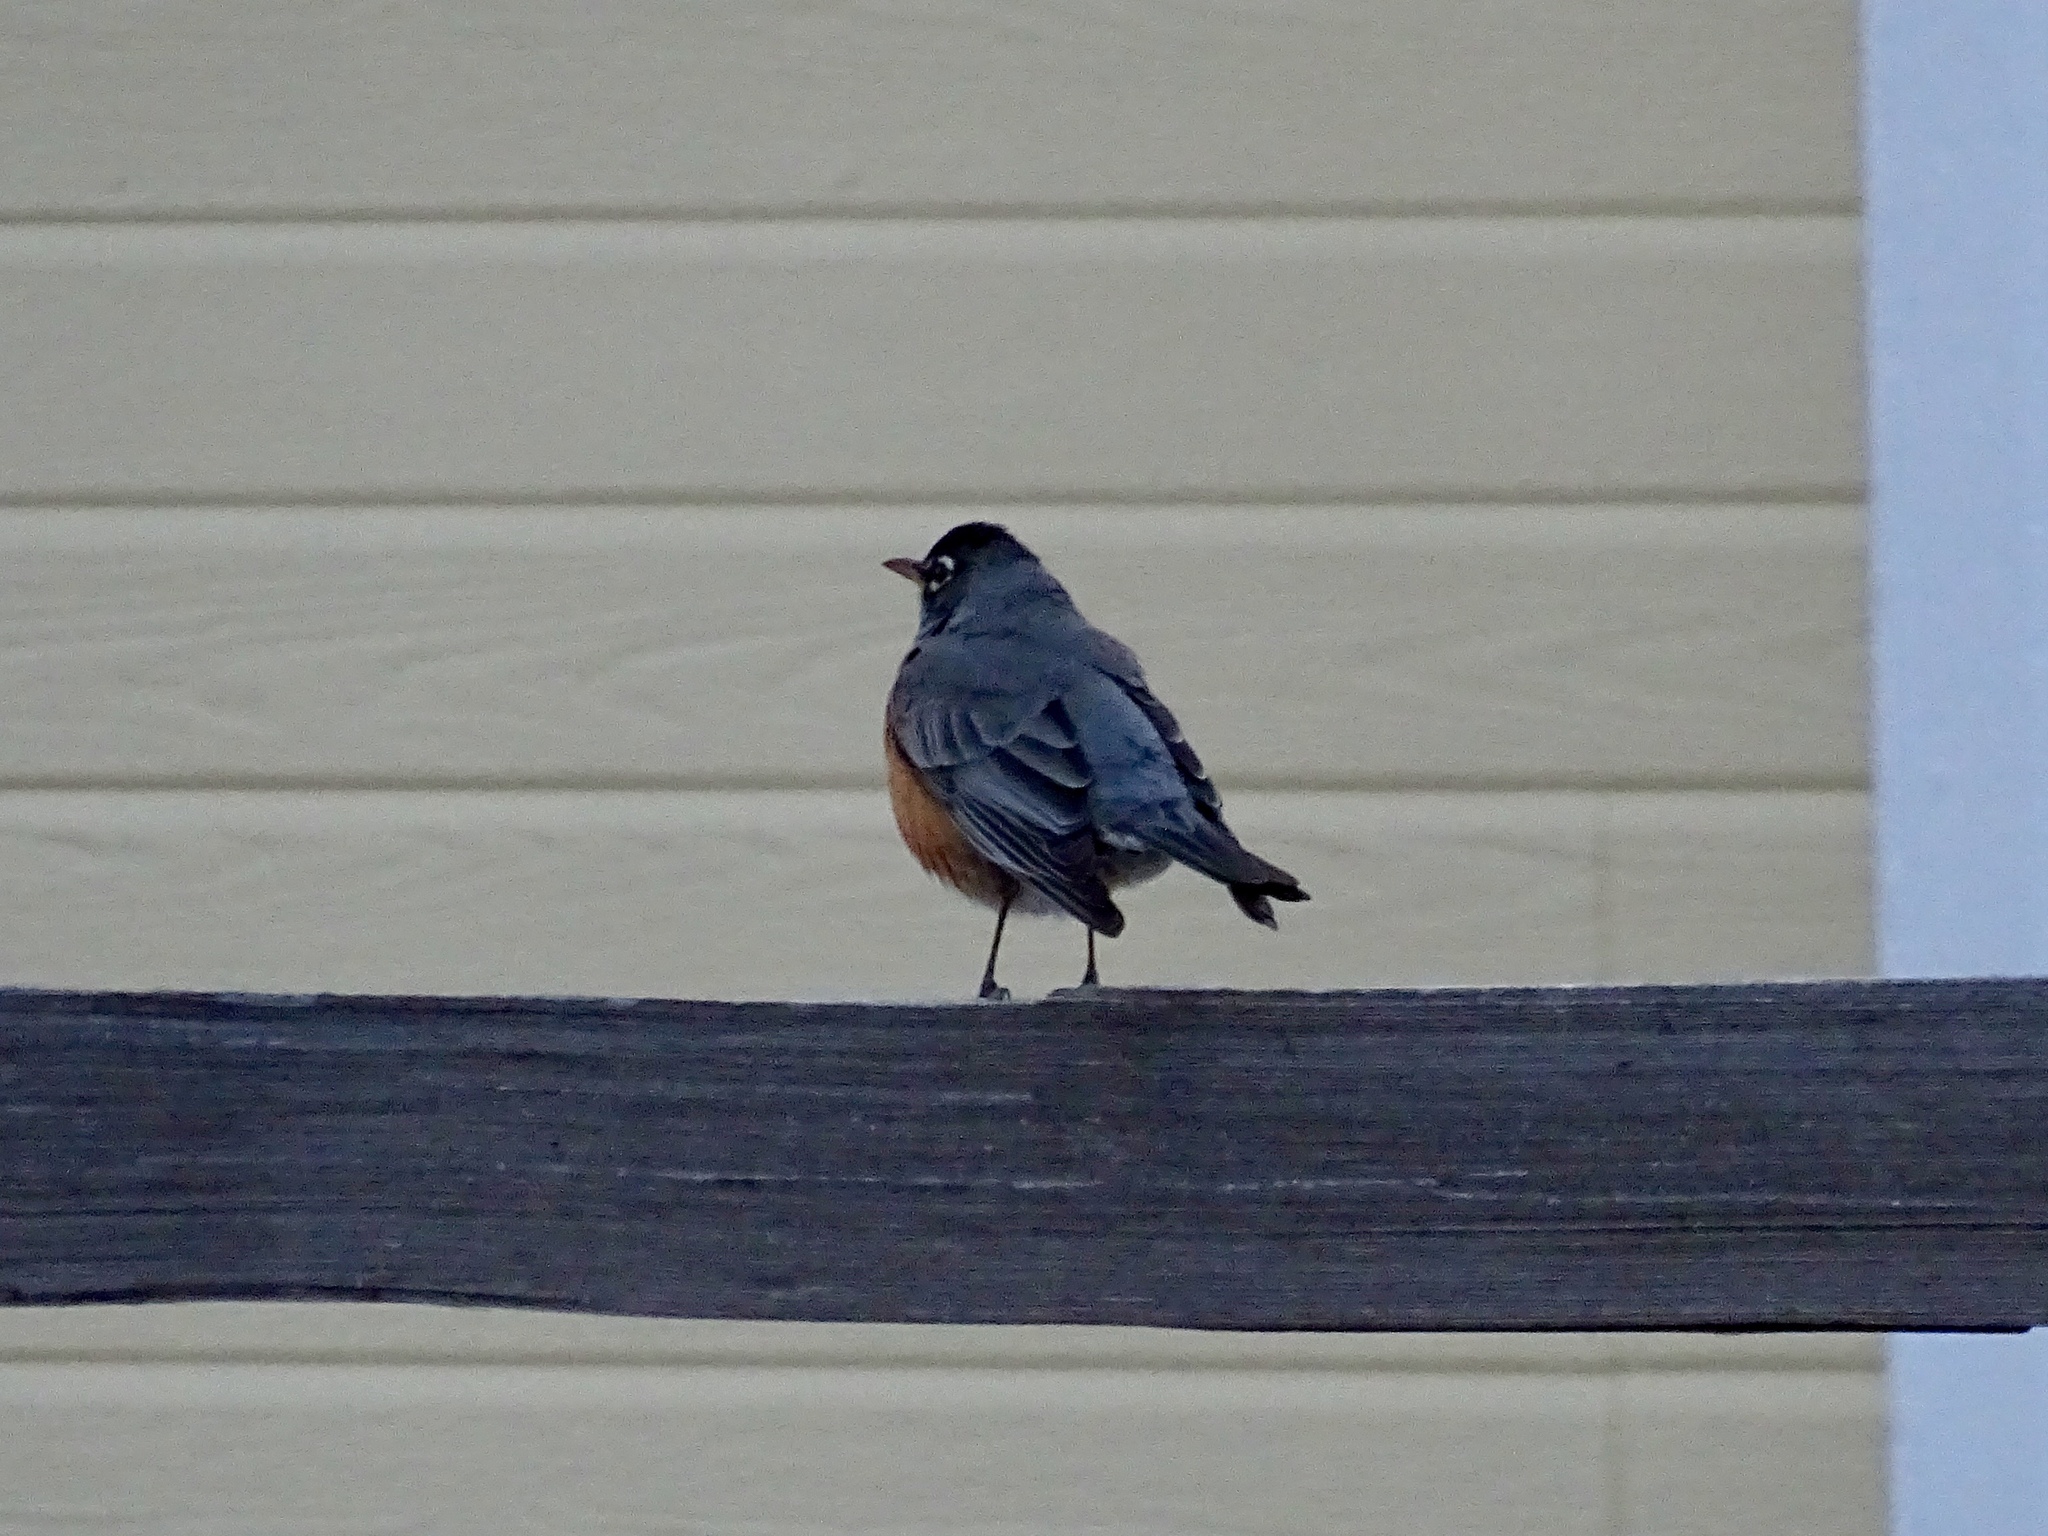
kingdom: Animalia
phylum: Chordata
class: Aves
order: Passeriformes
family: Turdidae
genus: Turdus
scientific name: Turdus migratorius
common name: American robin
